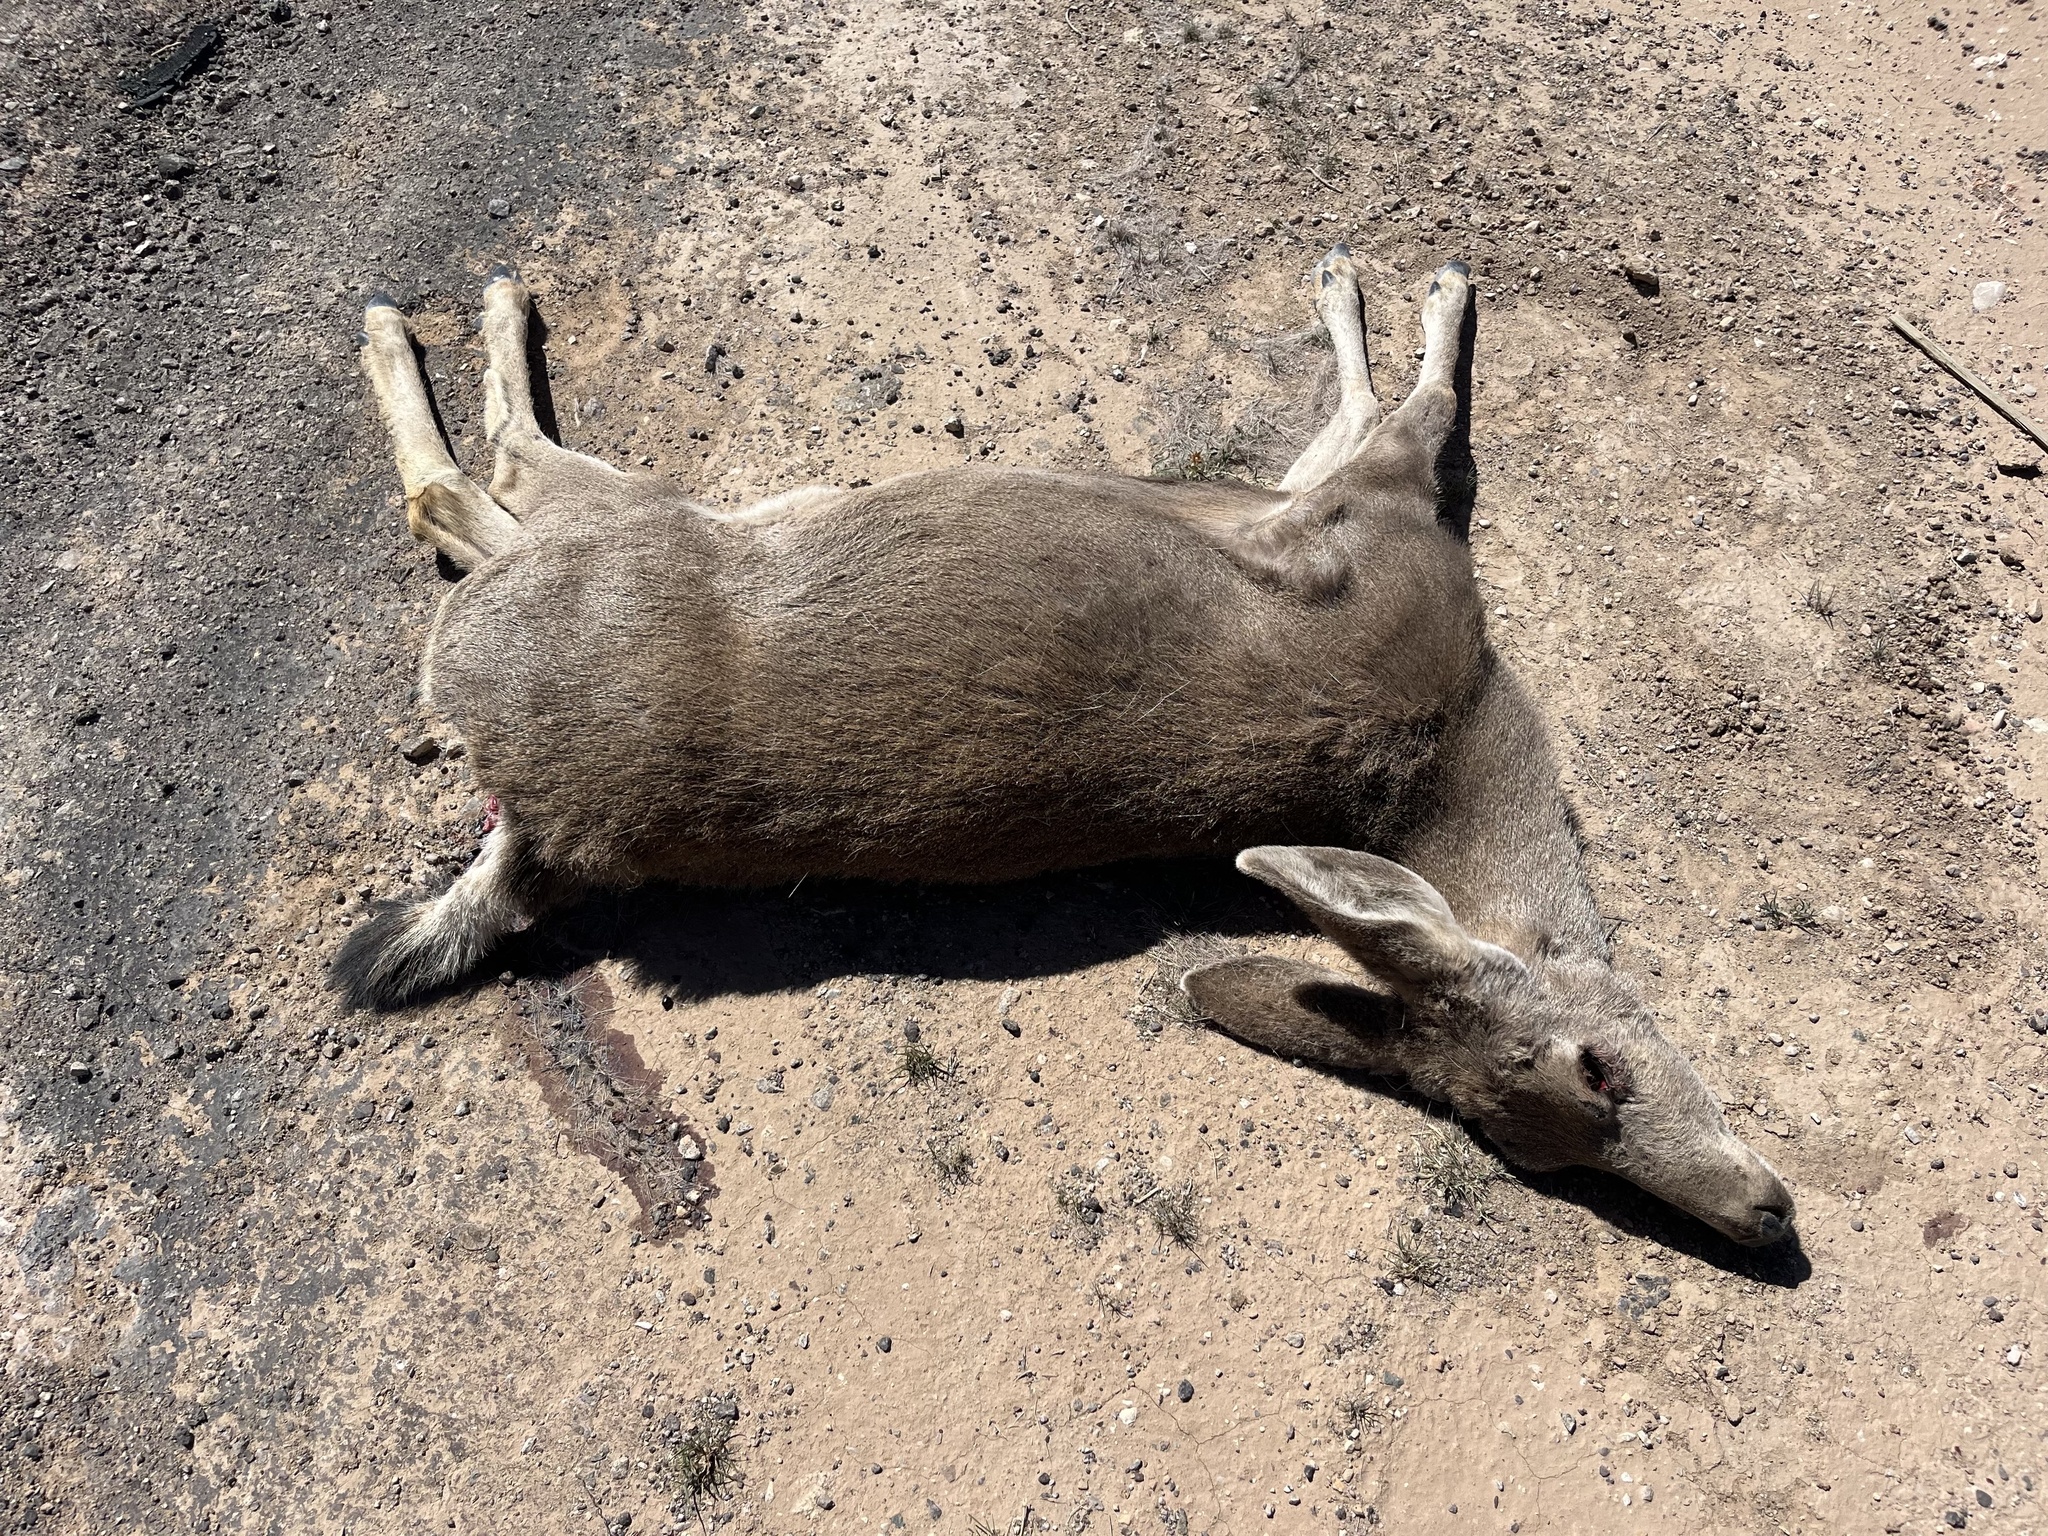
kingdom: Animalia
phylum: Chordata
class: Mammalia
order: Artiodactyla
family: Cervidae
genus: Odocoileus
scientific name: Odocoileus hemionus
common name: Mule deer
